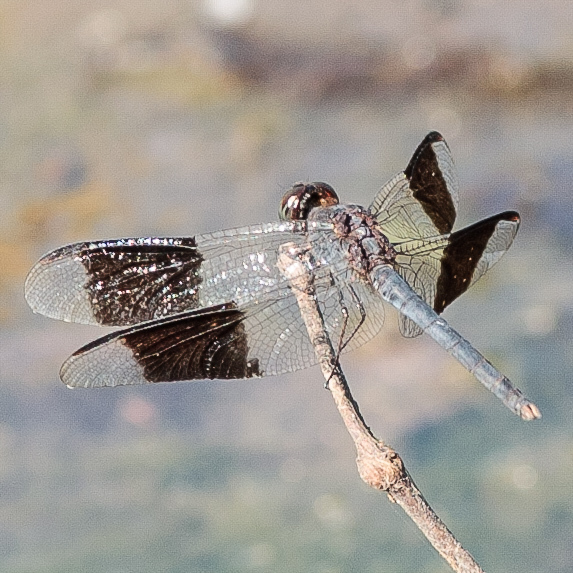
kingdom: Animalia
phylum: Arthropoda
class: Insecta
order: Odonata
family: Libellulidae
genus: Erythrodiplax
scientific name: Erythrodiplax umbrata
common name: Band-winged dragonlet
